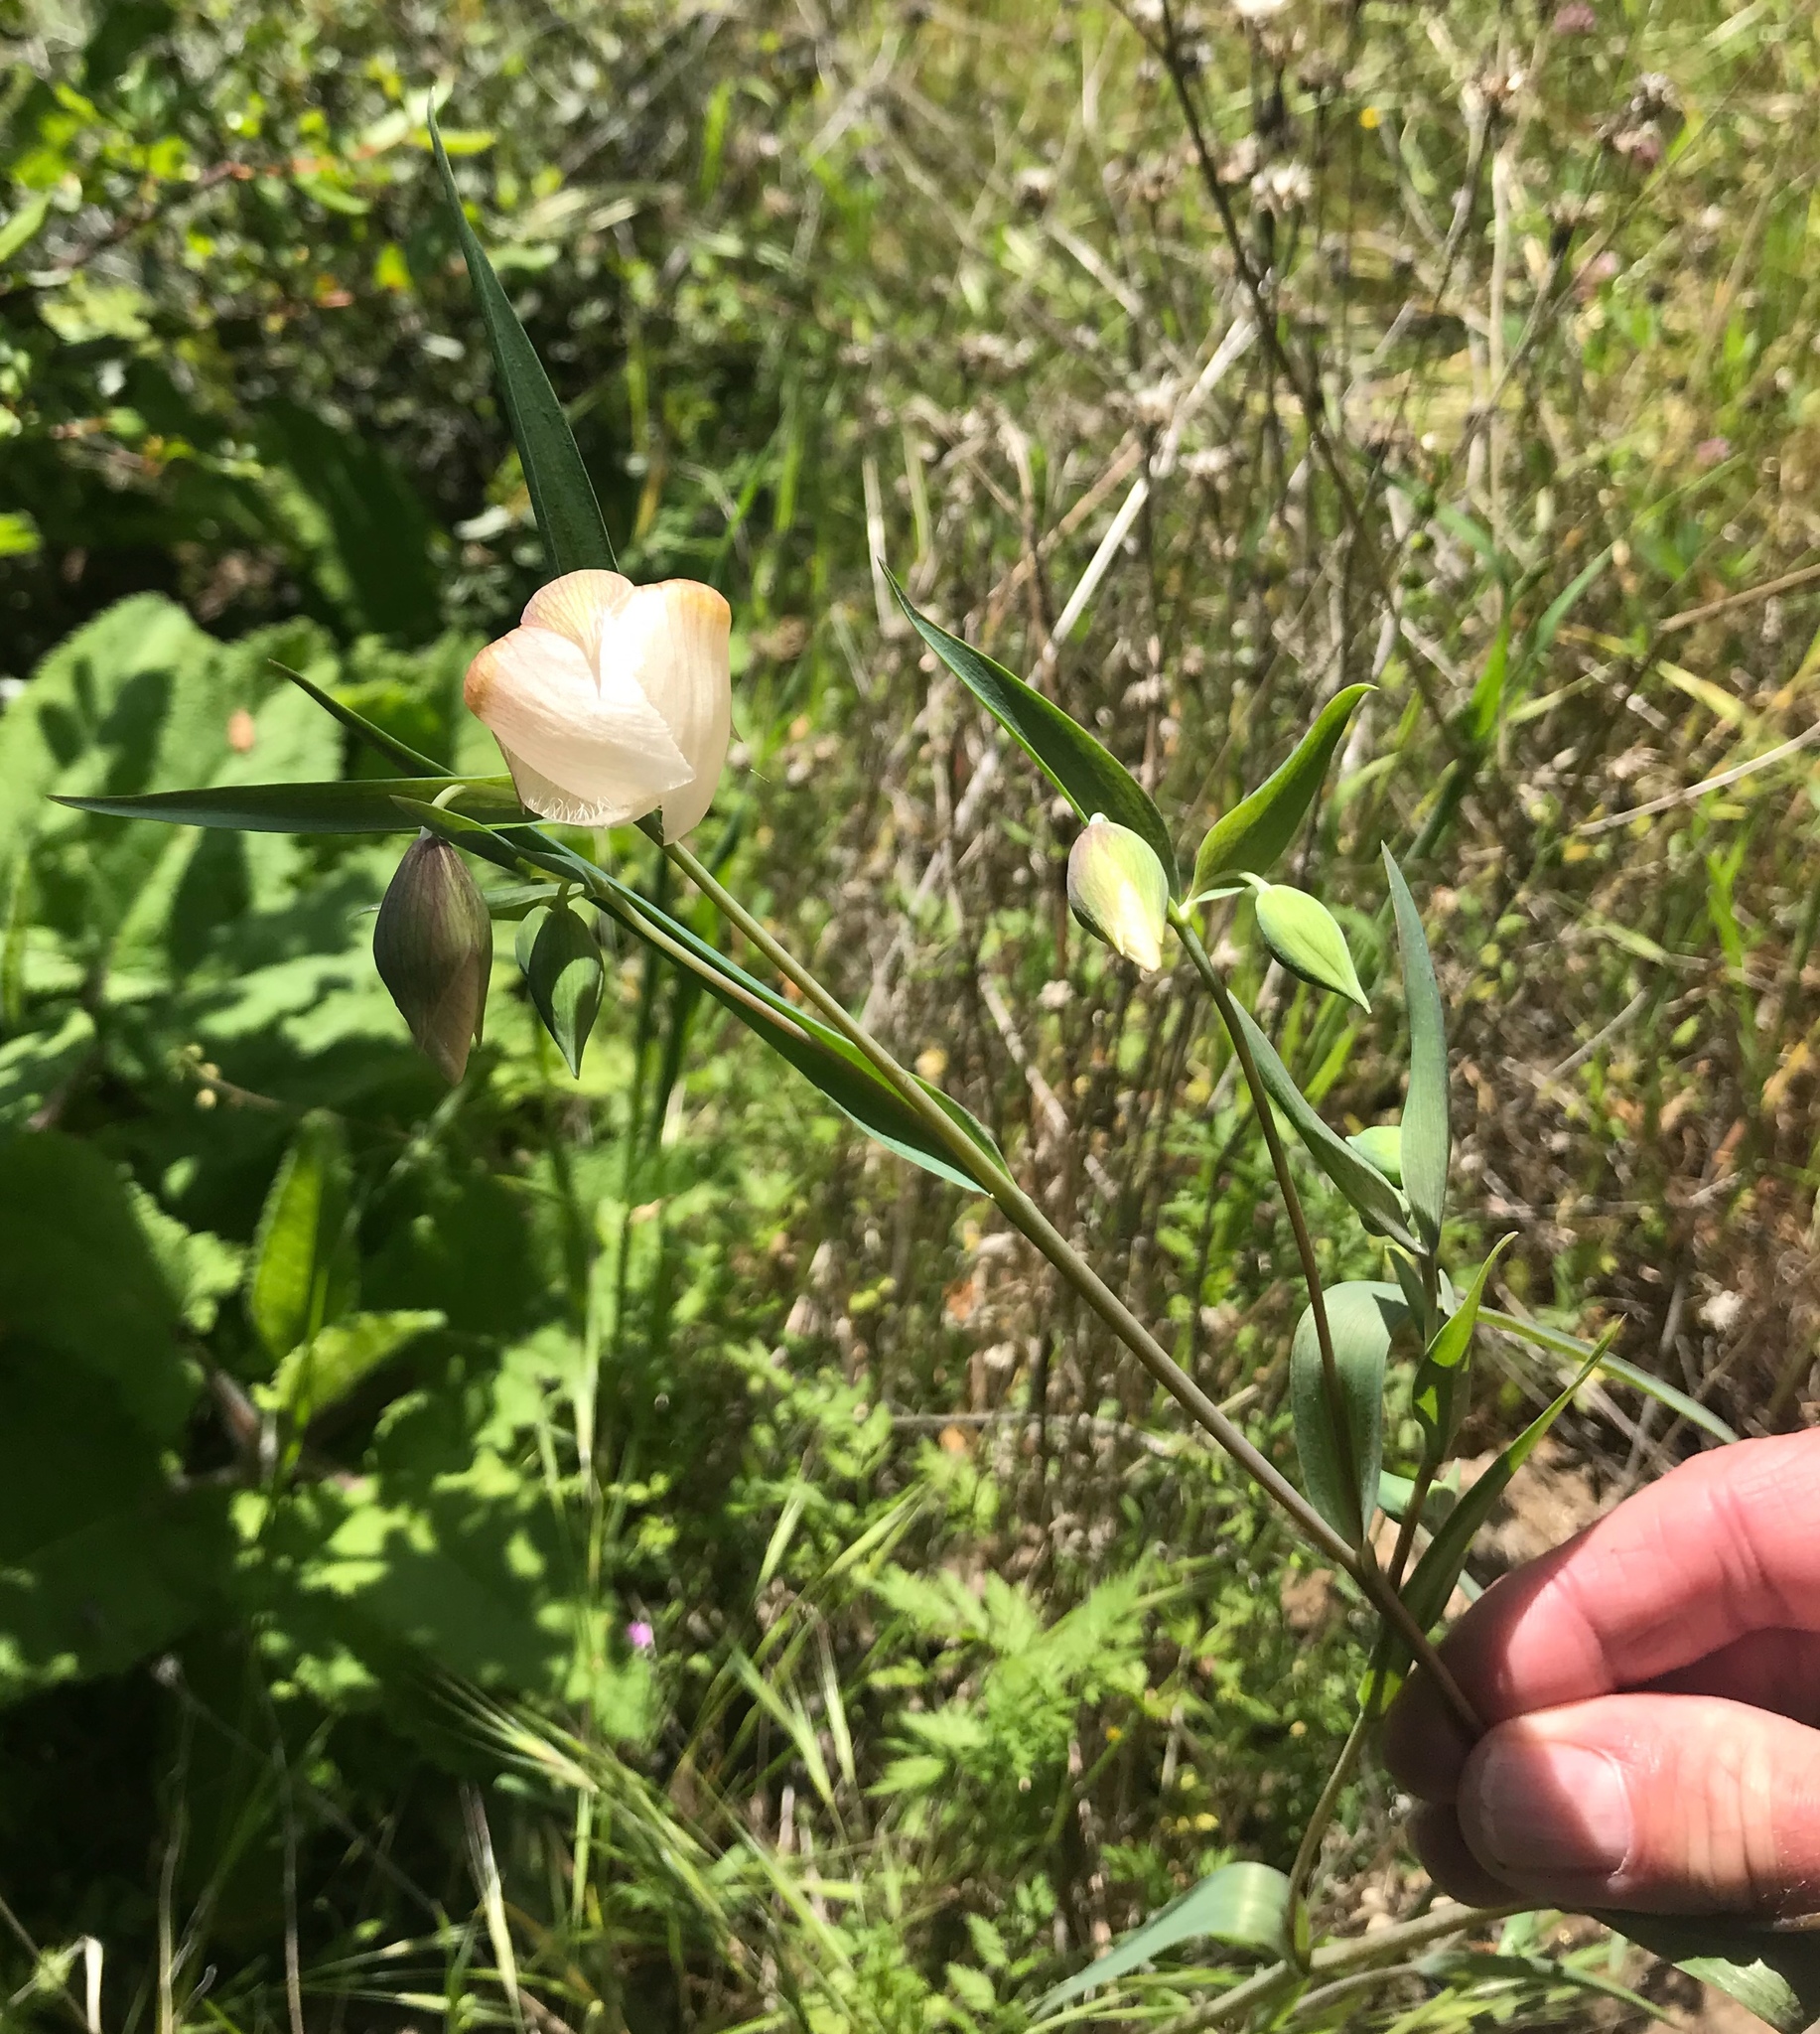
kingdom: Plantae
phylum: Tracheophyta
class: Liliopsida
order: Liliales
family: Liliaceae
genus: Calochortus
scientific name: Calochortus albus
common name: Fairy-lantern
